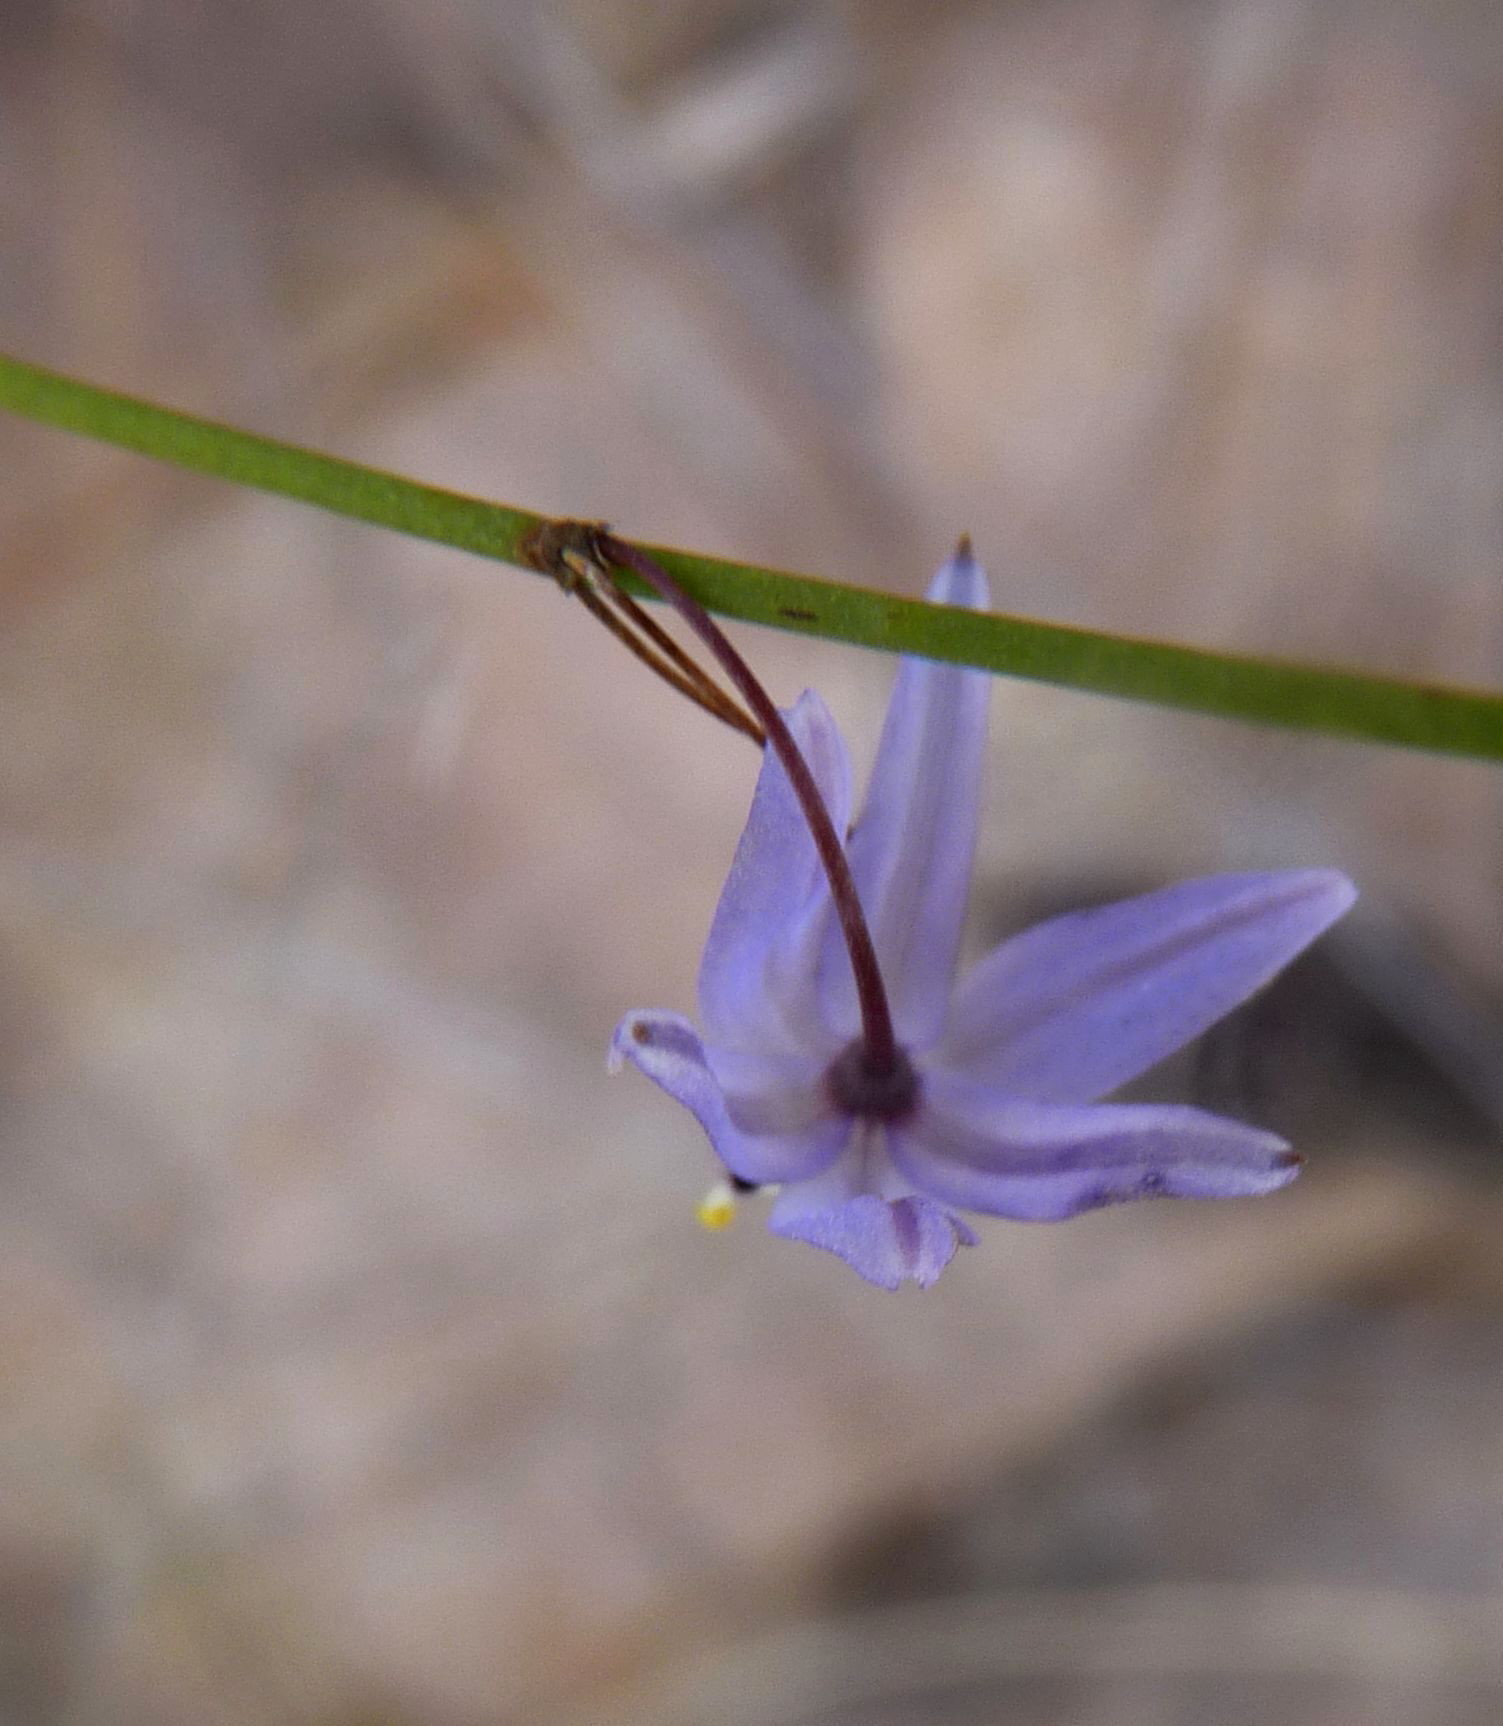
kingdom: Plantae
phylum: Tracheophyta
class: Liliopsida
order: Asparagales
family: Asphodelaceae
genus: Caesia
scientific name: Caesia contorta
